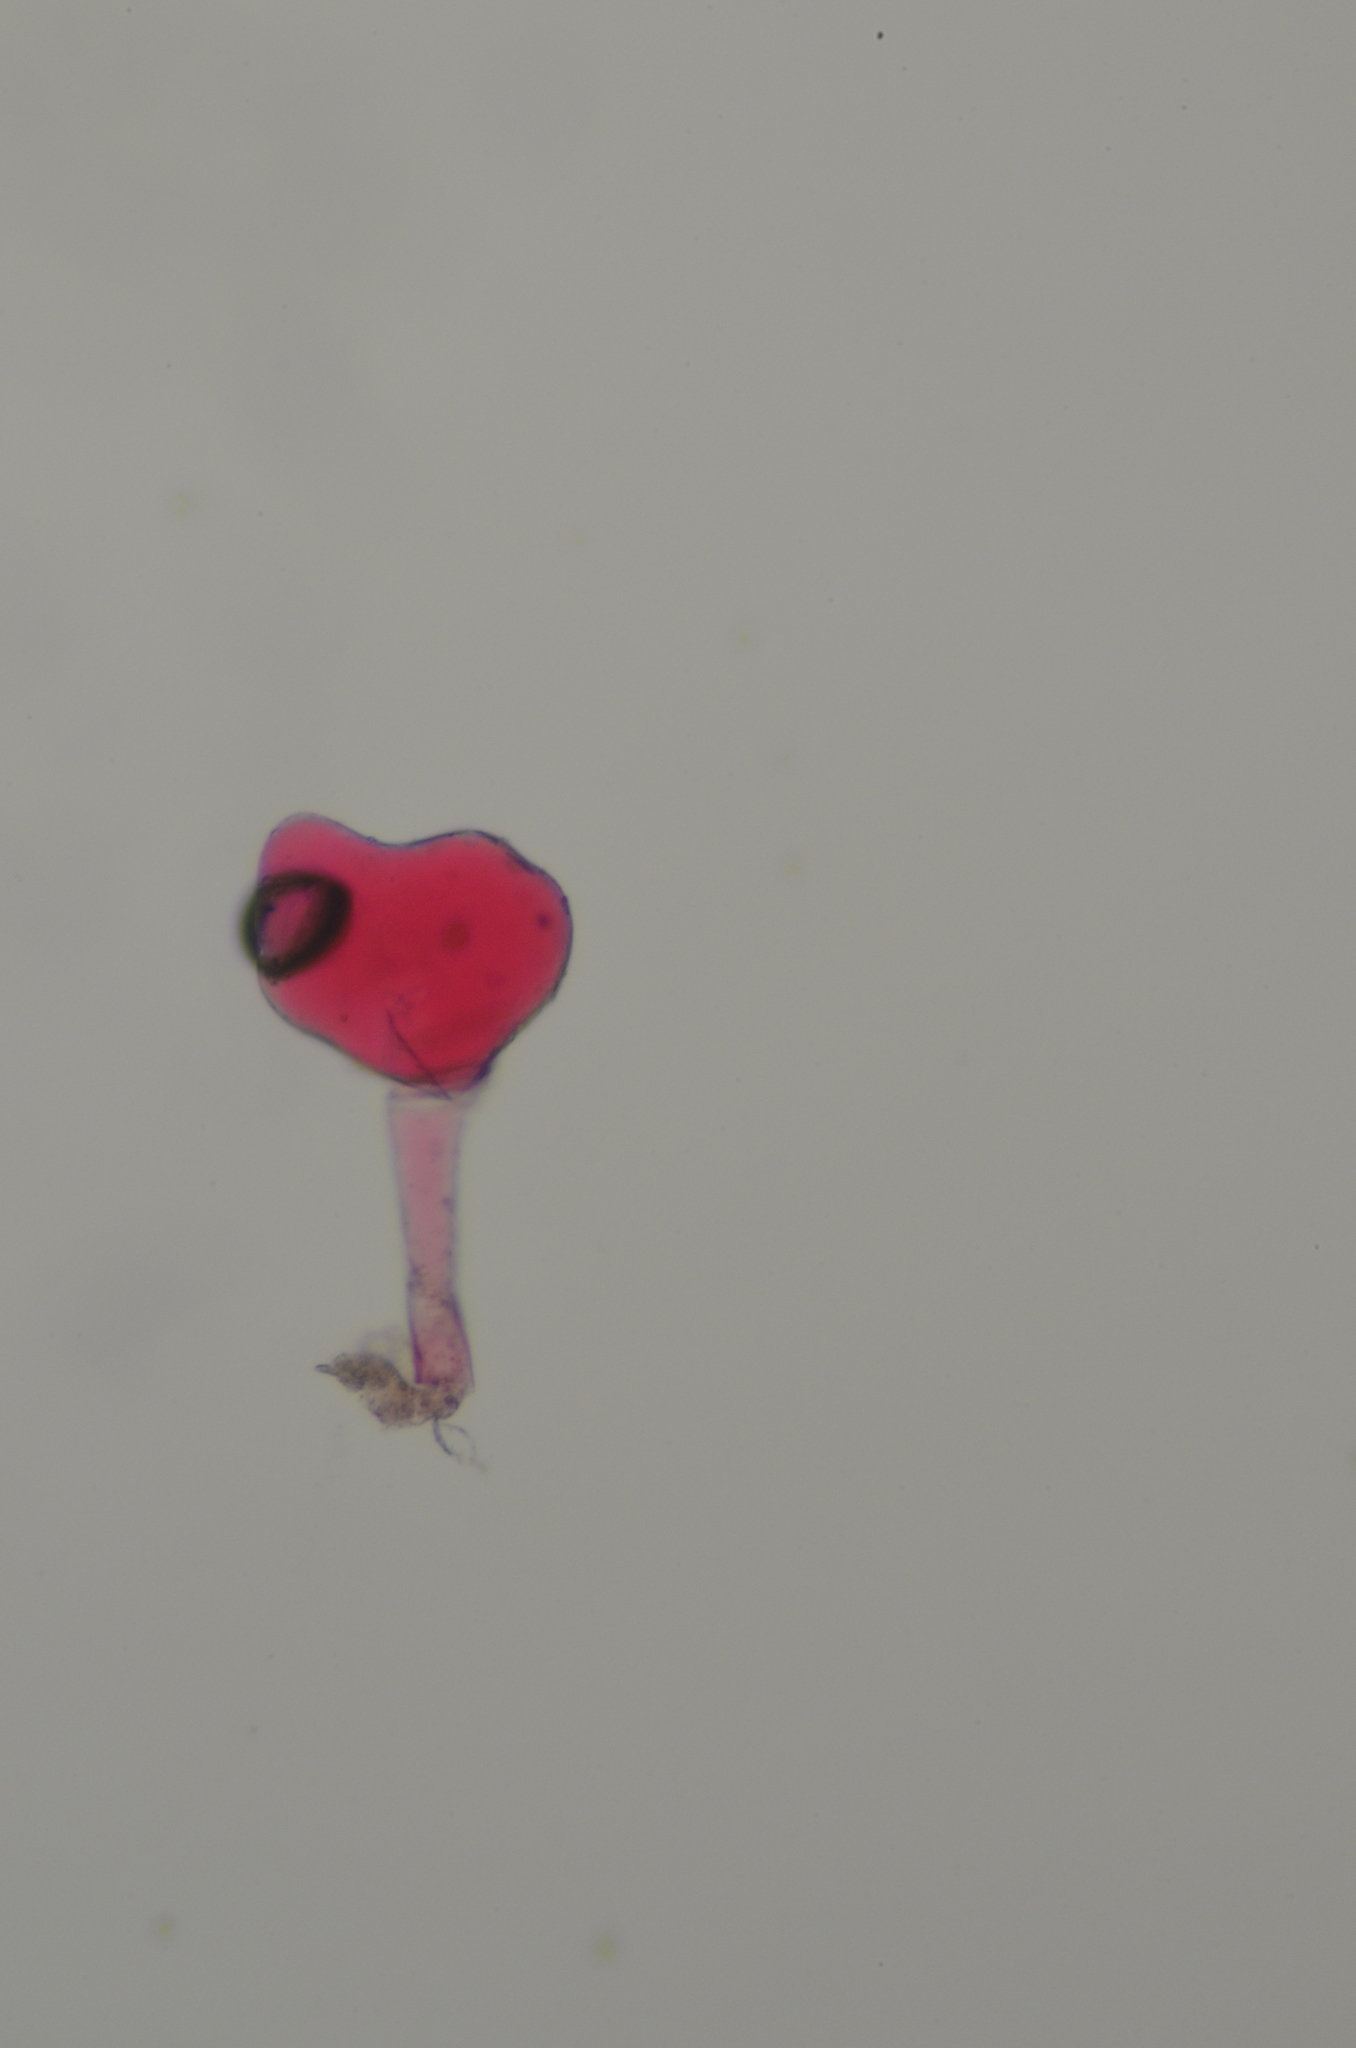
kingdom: Animalia
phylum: Arthropoda
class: Arachnida
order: Trombidiformes
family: Eriophyidae
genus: Aceria
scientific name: Aceria
